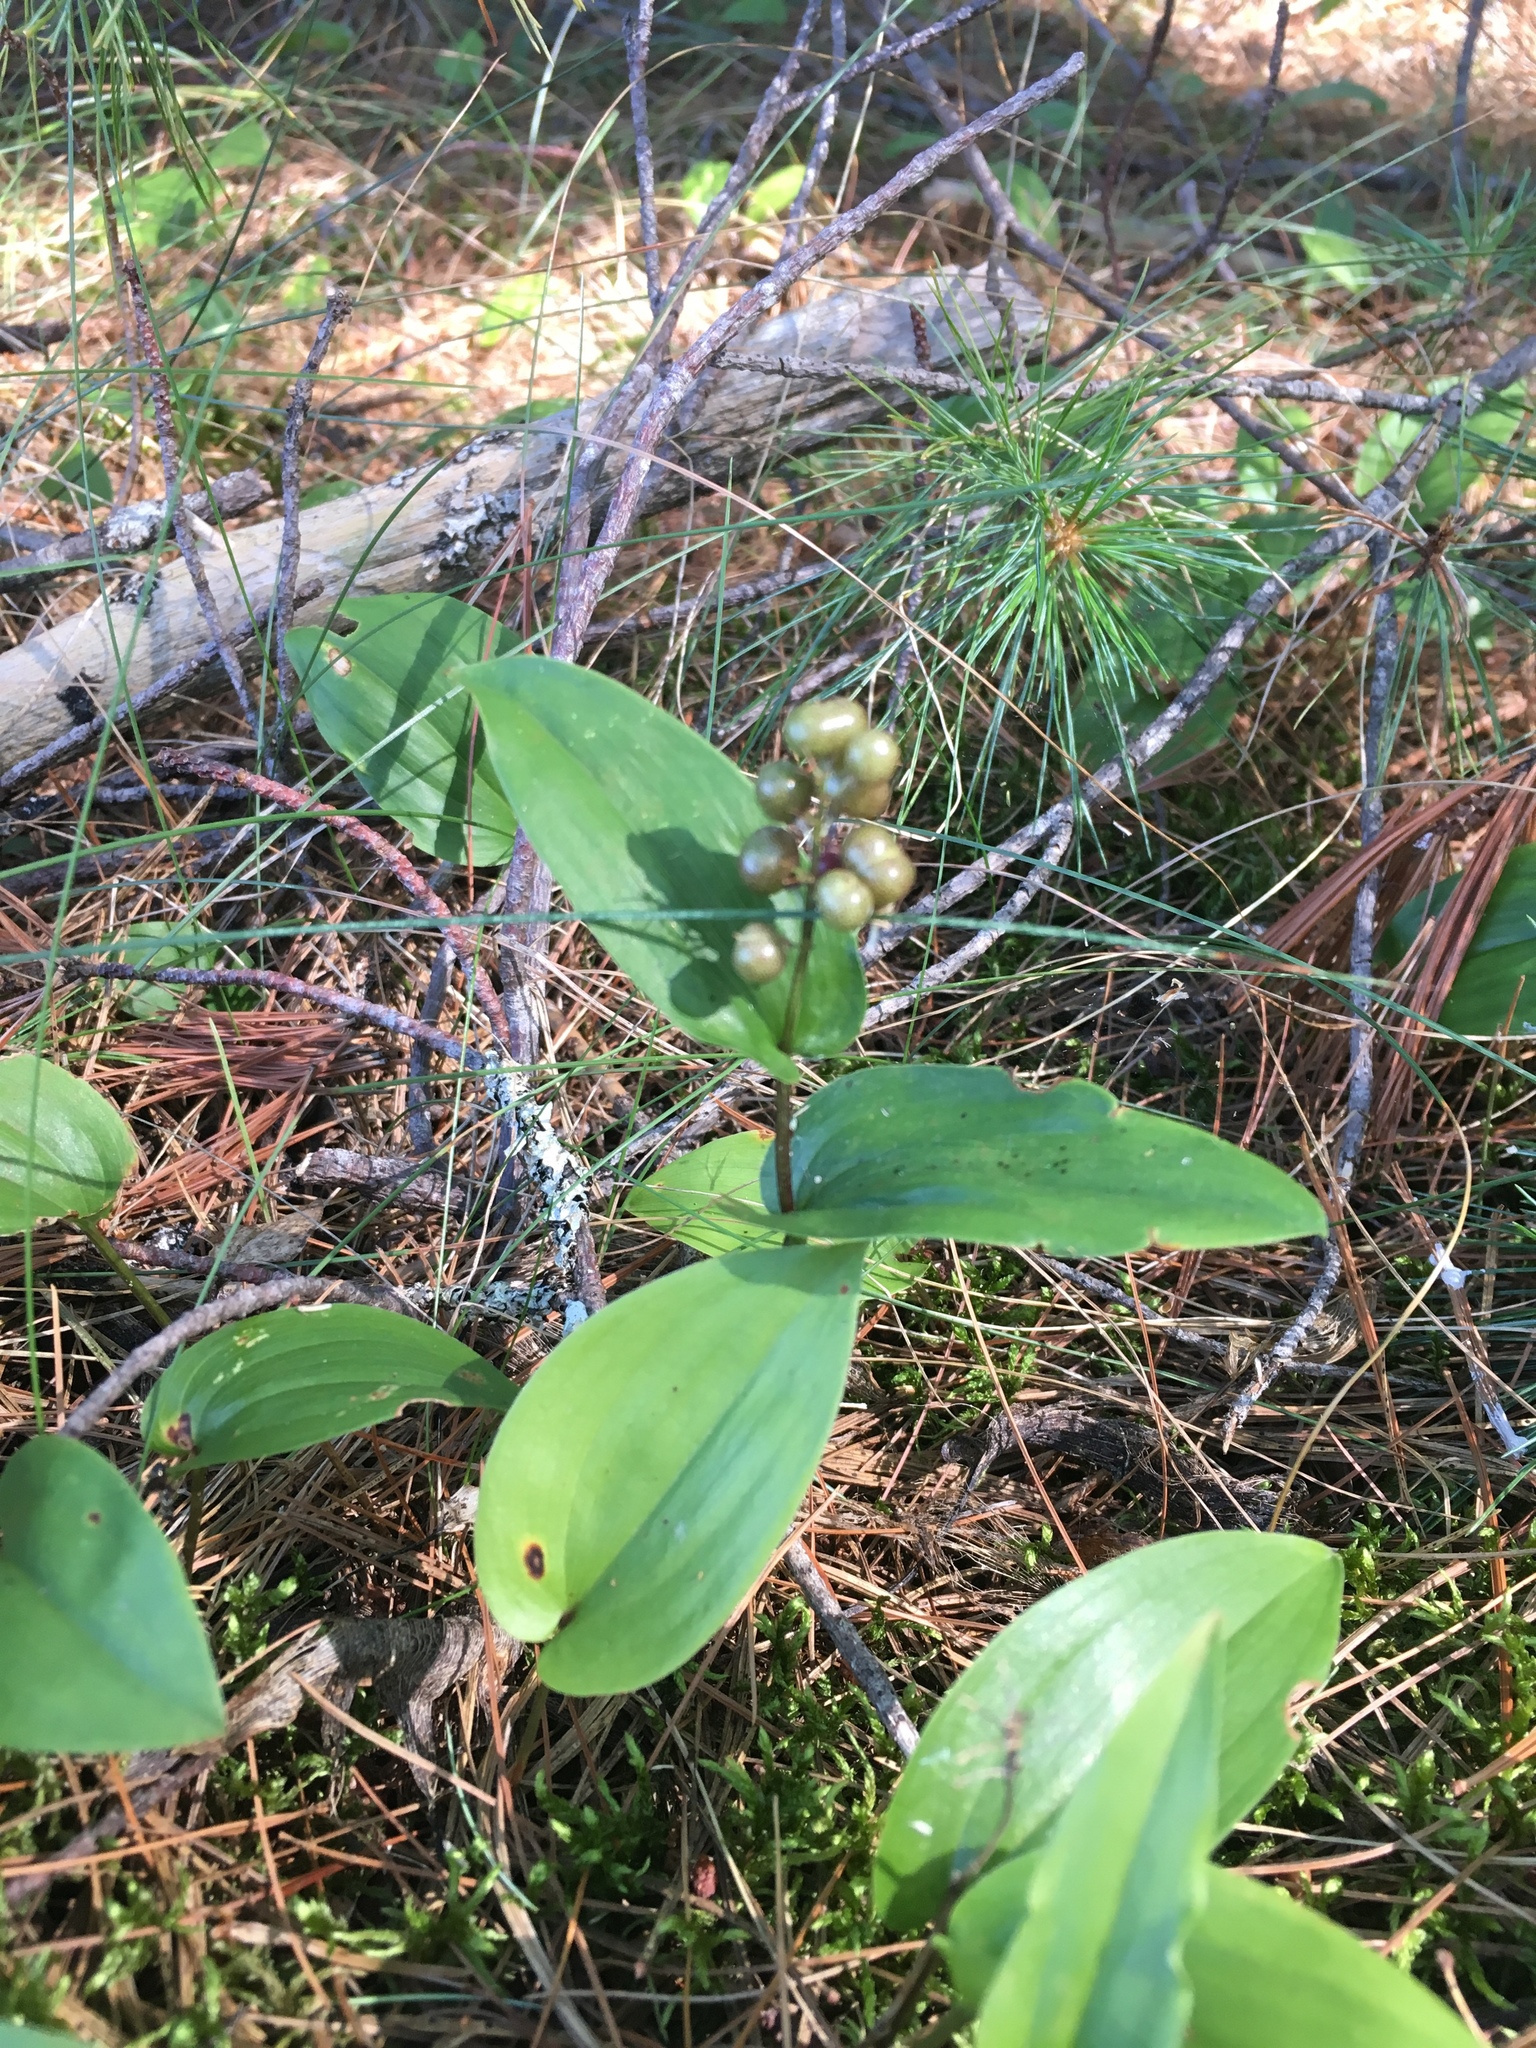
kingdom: Plantae
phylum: Tracheophyta
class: Liliopsida
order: Asparagales
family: Asparagaceae
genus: Maianthemum
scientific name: Maianthemum canadense
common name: False lily-of-the-valley
